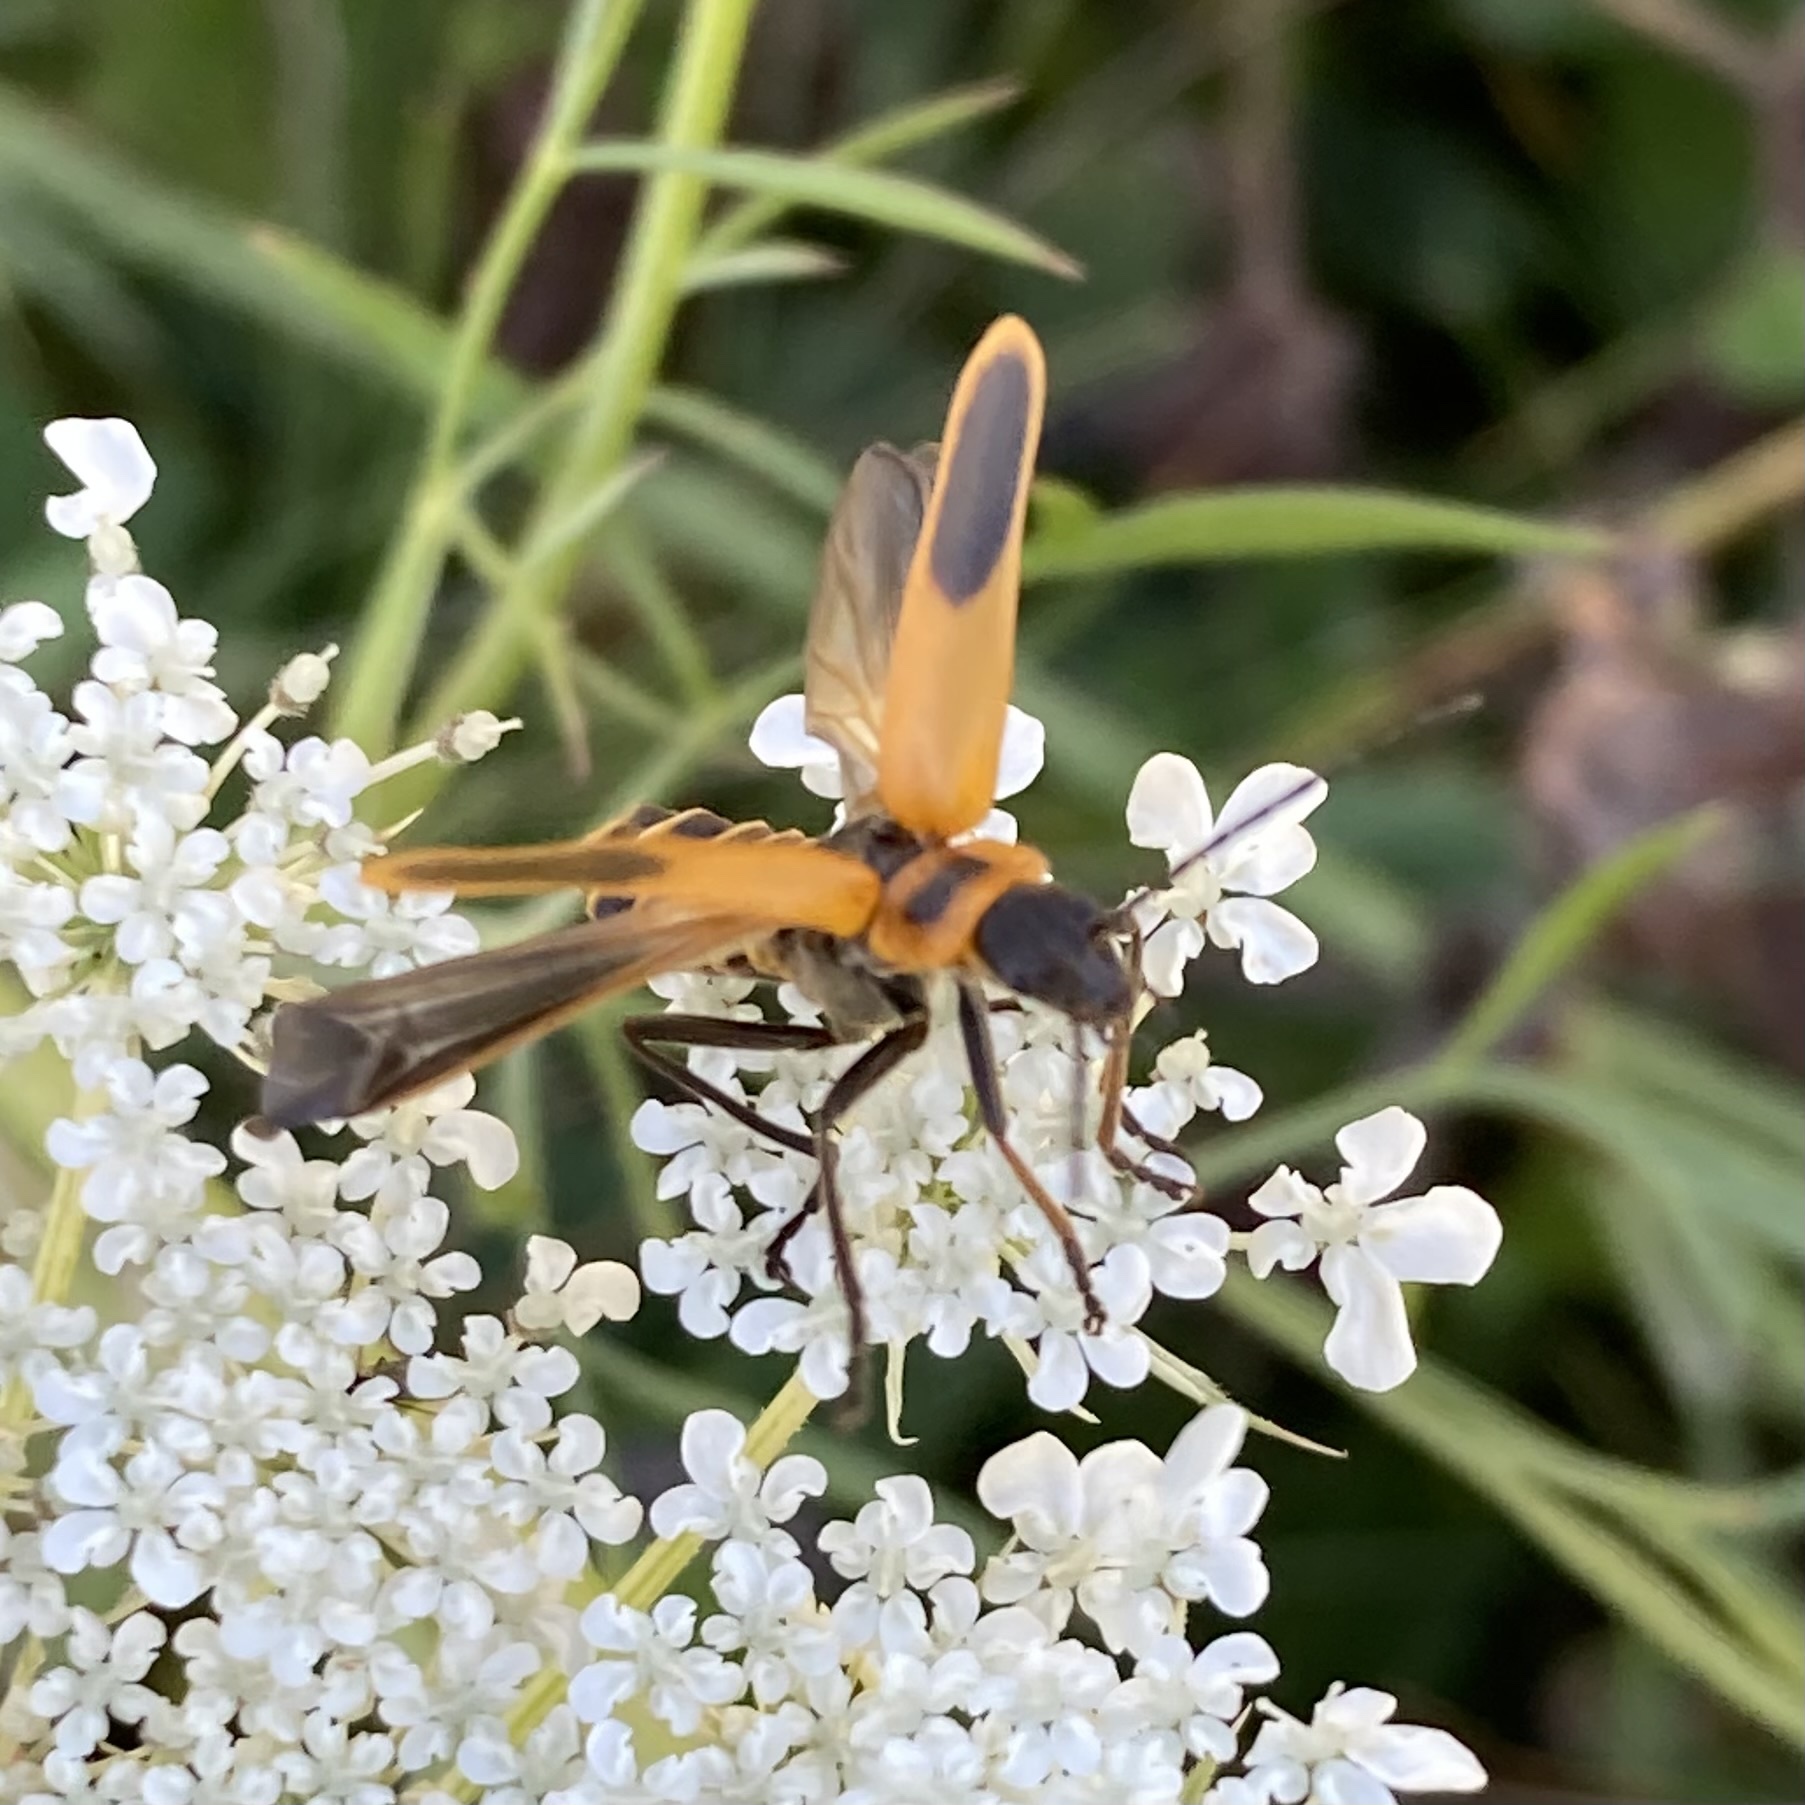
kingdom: Animalia
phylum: Arthropoda
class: Insecta
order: Coleoptera
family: Cantharidae
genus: Chauliognathus
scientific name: Chauliognathus pensylvanicus
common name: Goldenrod soldier beetle
